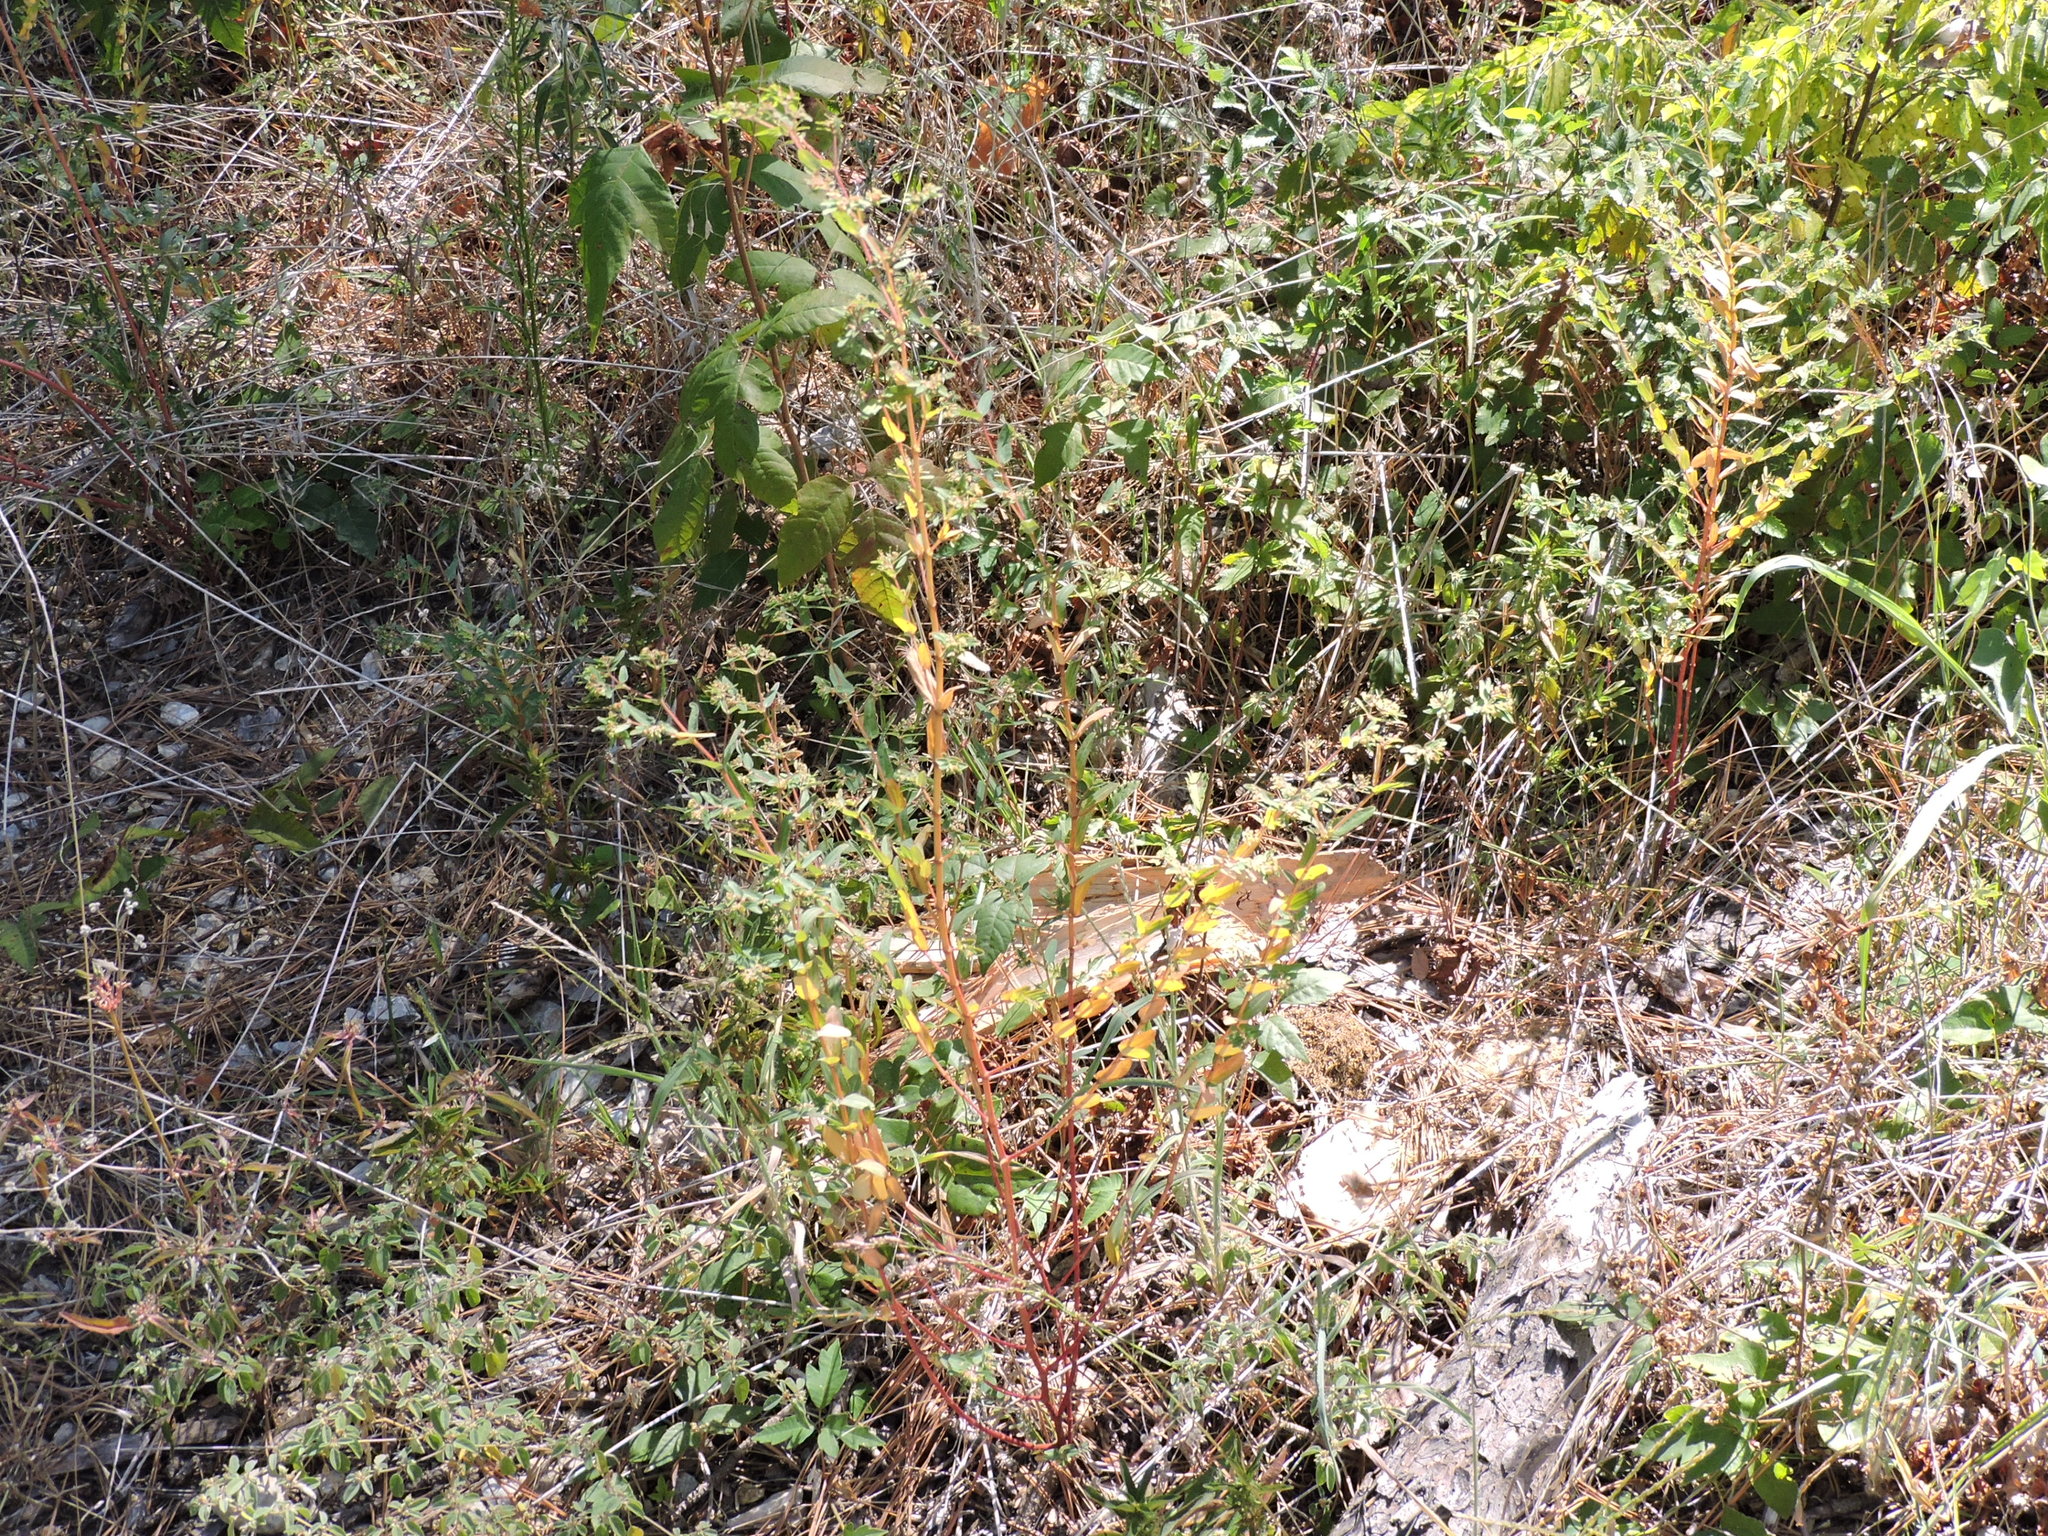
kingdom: Plantae
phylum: Tracheophyta
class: Magnoliopsida
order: Malpighiales
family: Euphorbiaceae
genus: Euphorbia
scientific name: Euphorbia nutans
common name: Eyebane
